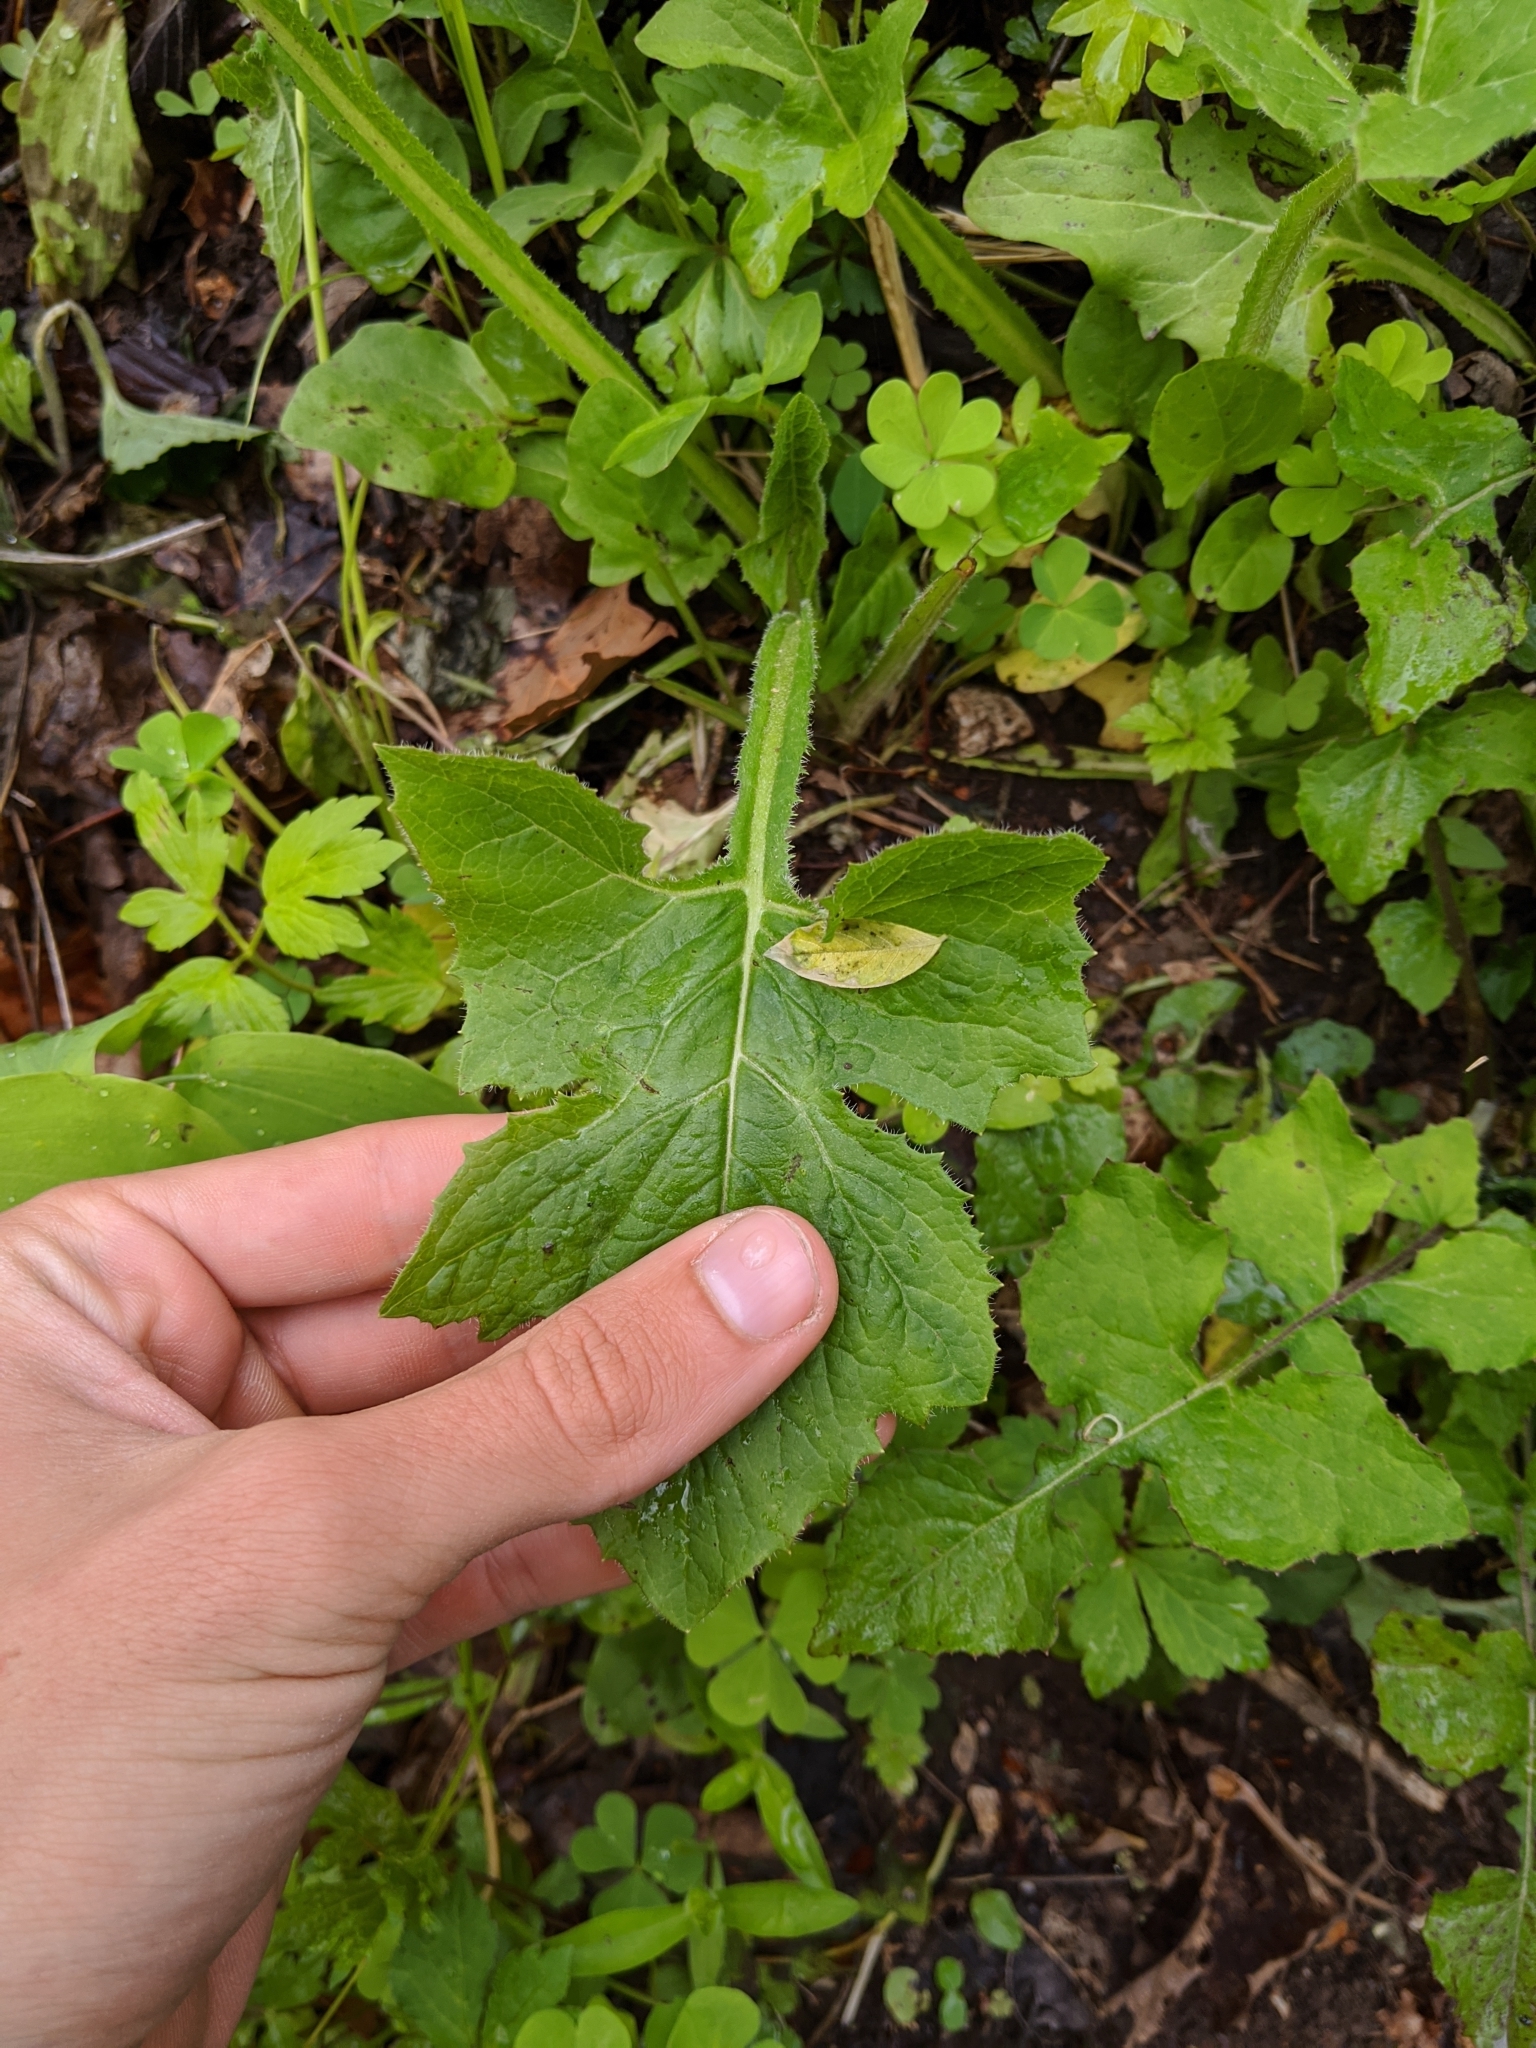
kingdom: Plantae
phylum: Tracheophyta
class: Magnoliopsida
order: Asterales
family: Asteraceae
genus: Nabalus
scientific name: Nabalus crepidineus
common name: Nodding rattlesnakeroot
